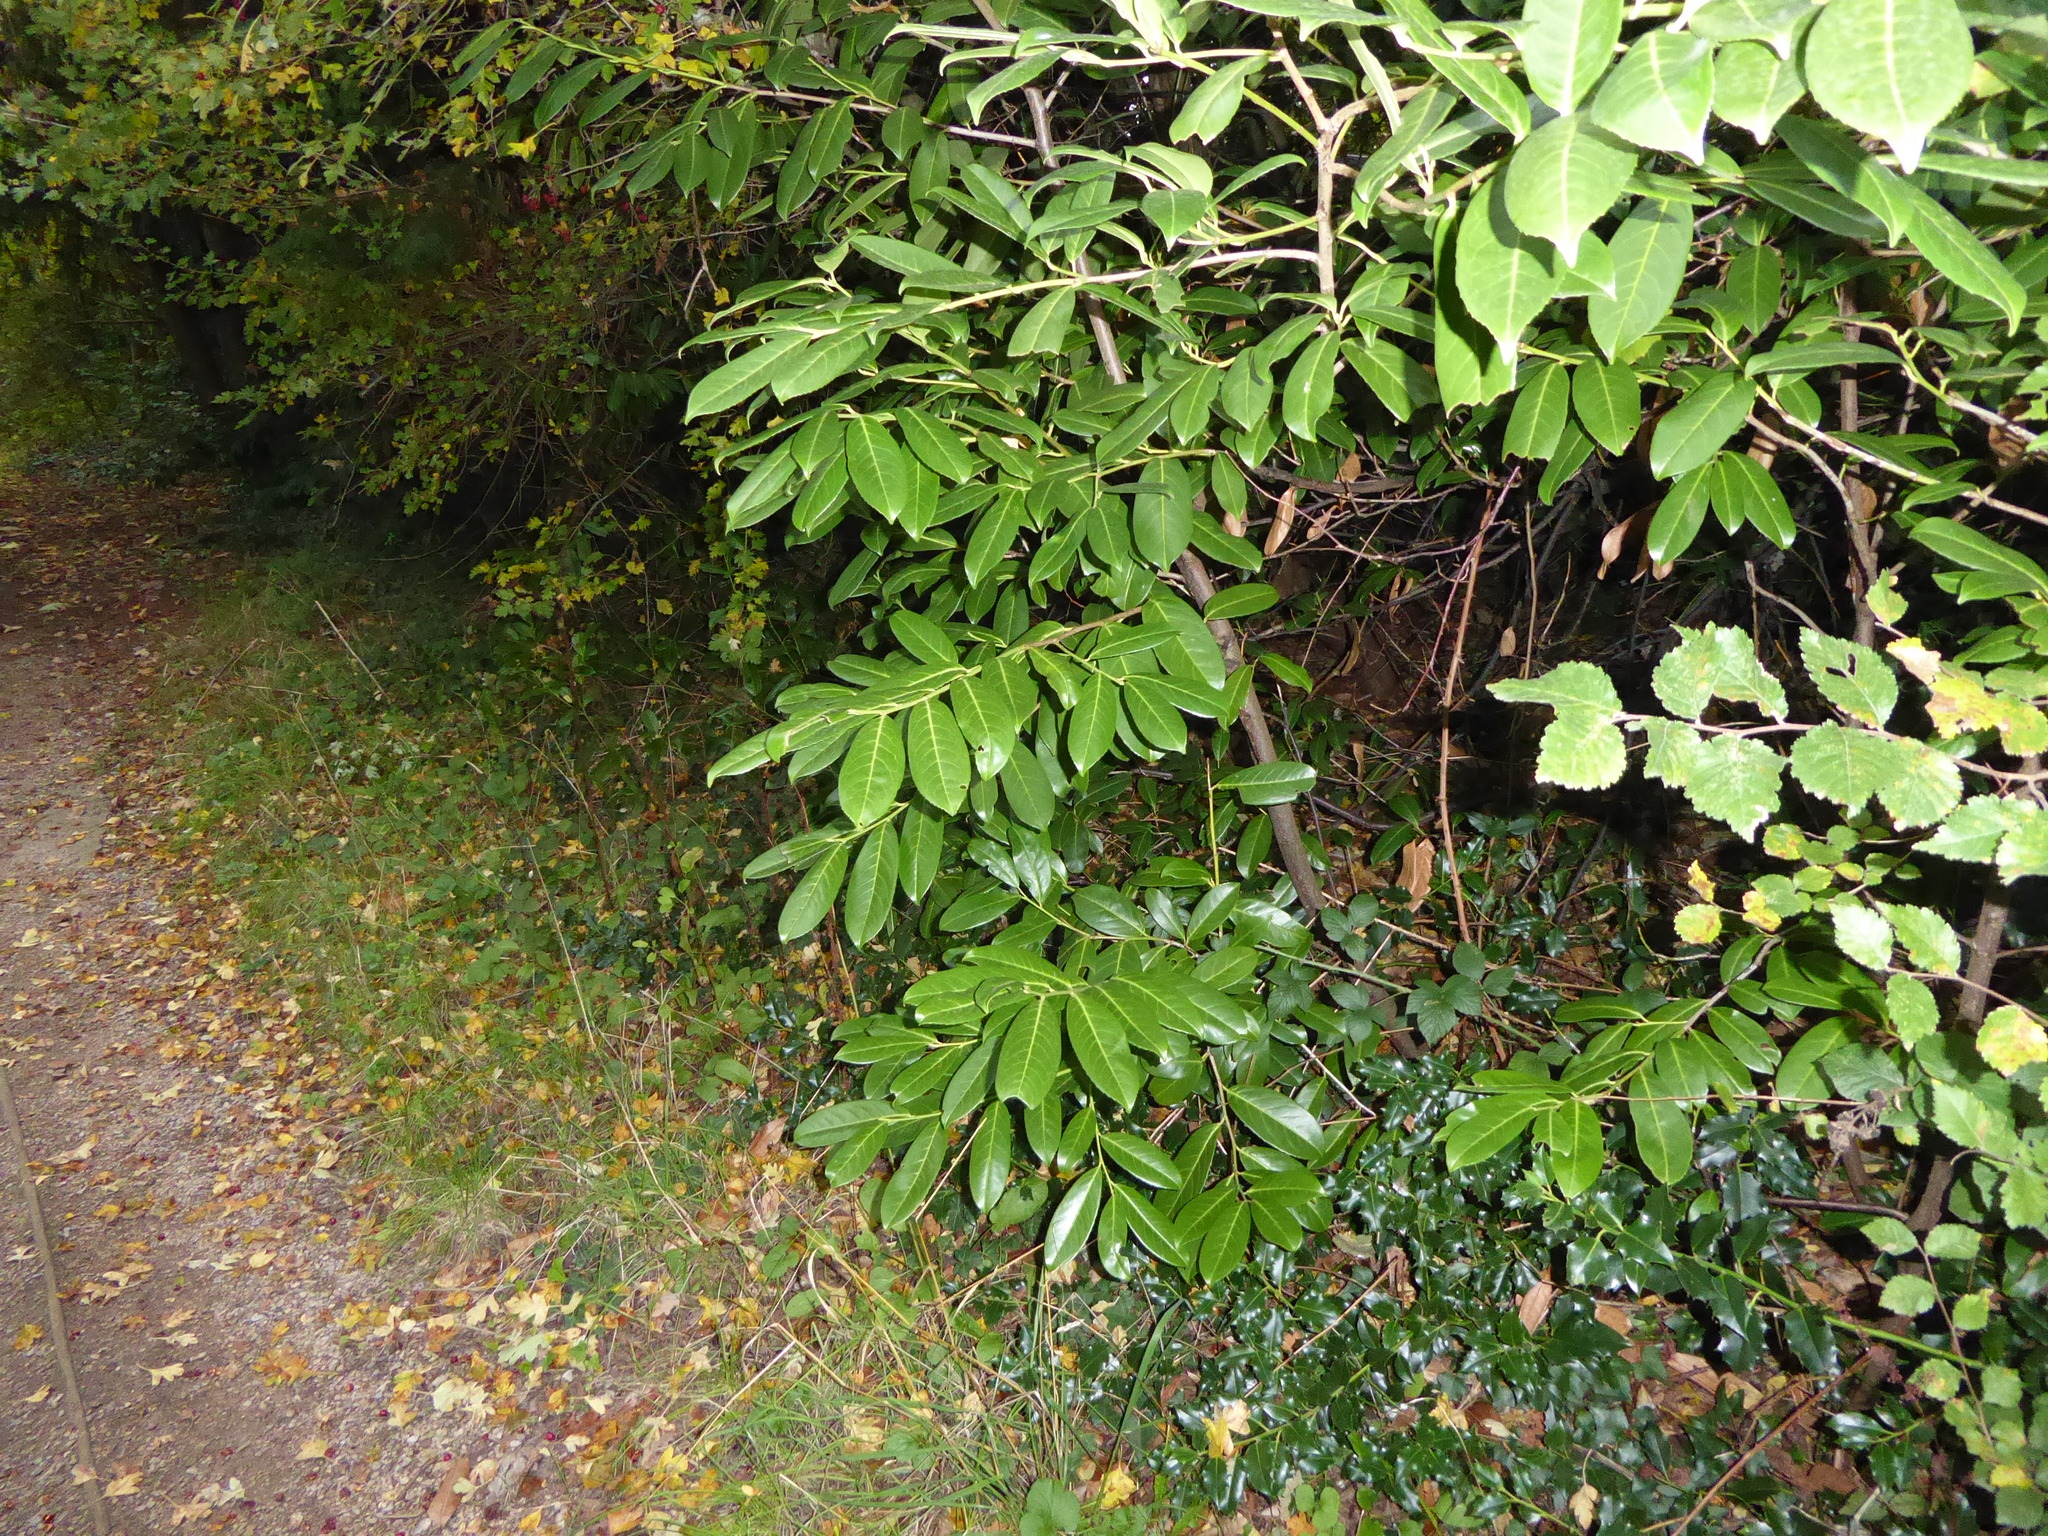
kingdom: Plantae
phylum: Tracheophyta
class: Magnoliopsida
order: Rosales
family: Rosaceae
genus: Prunus
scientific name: Prunus laurocerasus
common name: Cherry laurel
